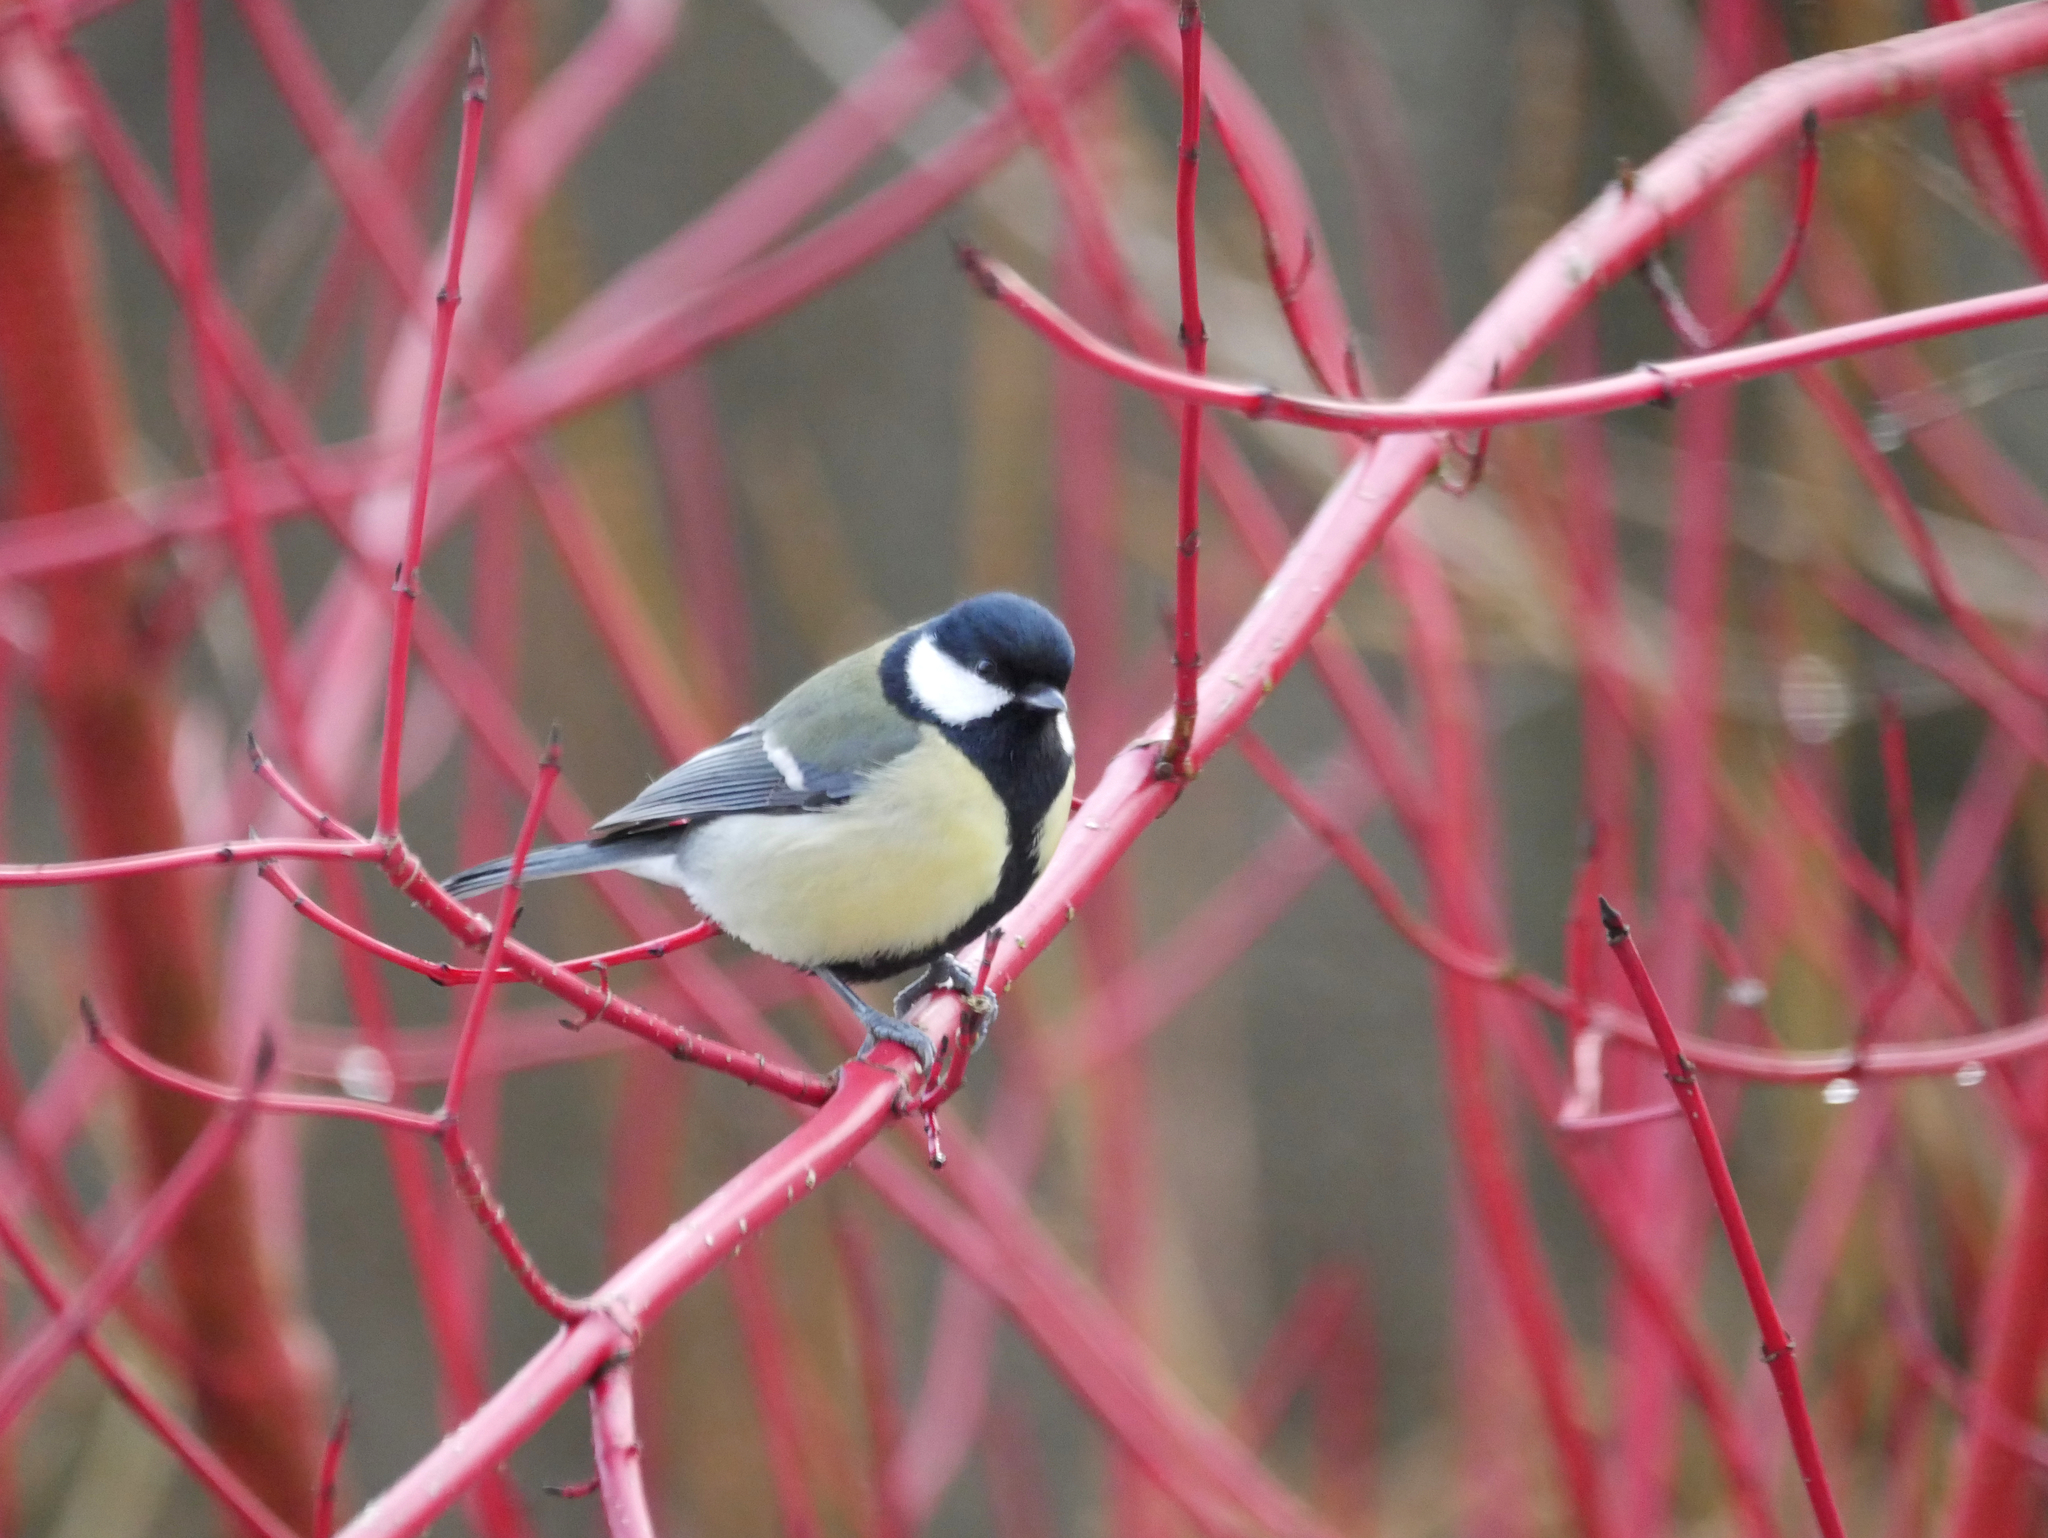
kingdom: Animalia
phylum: Chordata
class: Aves
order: Passeriformes
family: Paridae
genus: Parus
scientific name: Parus major
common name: Great tit
